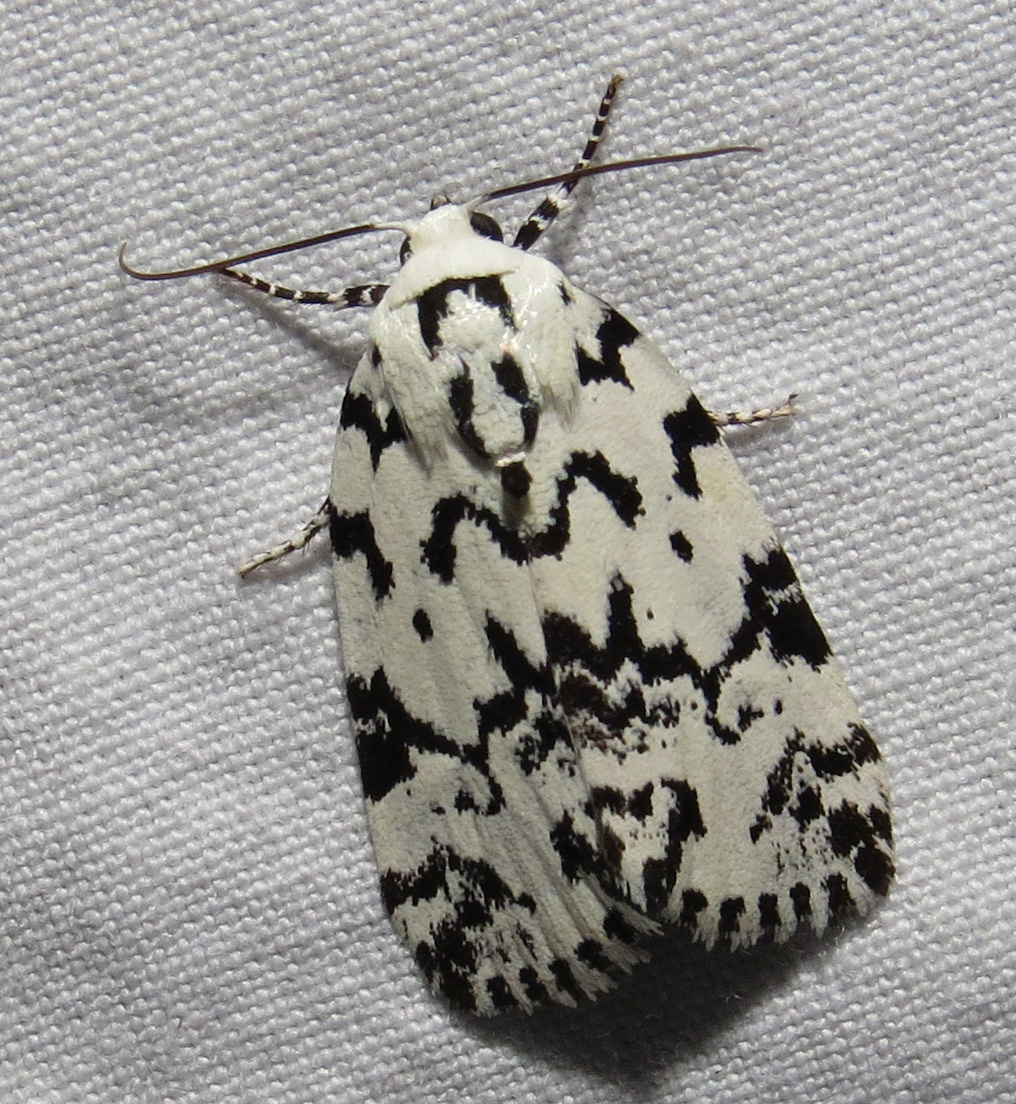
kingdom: Animalia
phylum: Arthropoda
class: Insecta
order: Lepidoptera
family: Noctuidae
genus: Polygrammate
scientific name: Polygrammate hebraeicum
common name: Hebrew moth
